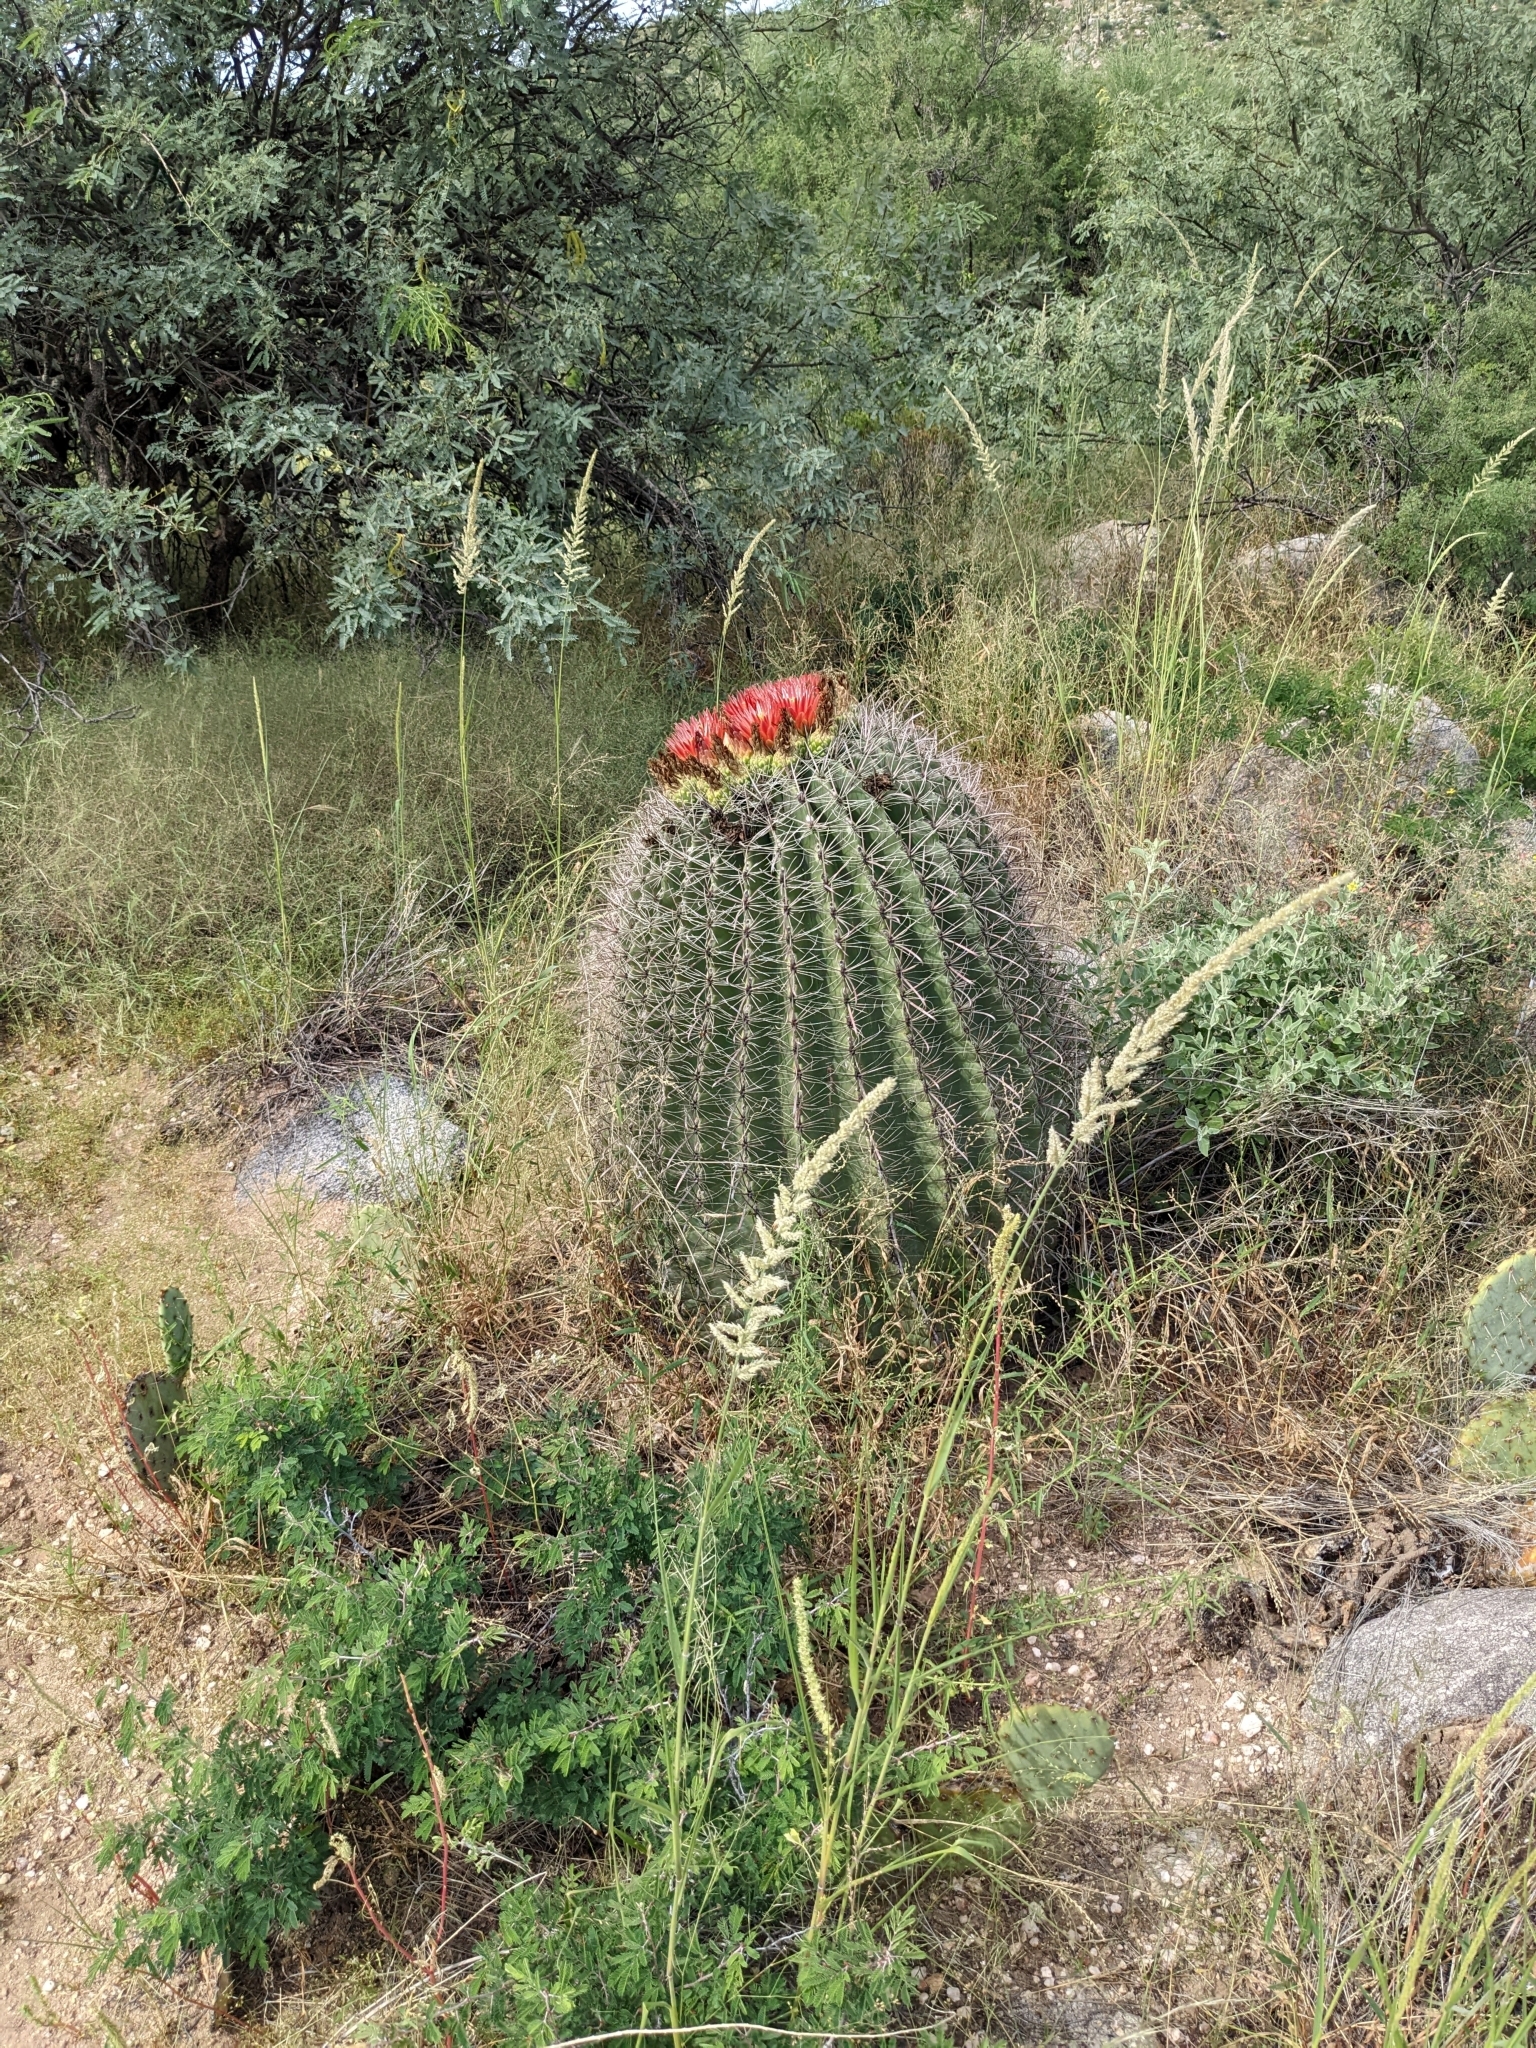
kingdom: Plantae
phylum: Tracheophyta
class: Magnoliopsida
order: Caryophyllales
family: Cactaceae
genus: Ferocactus
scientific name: Ferocactus wislizeni
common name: Candy barrel cactus
